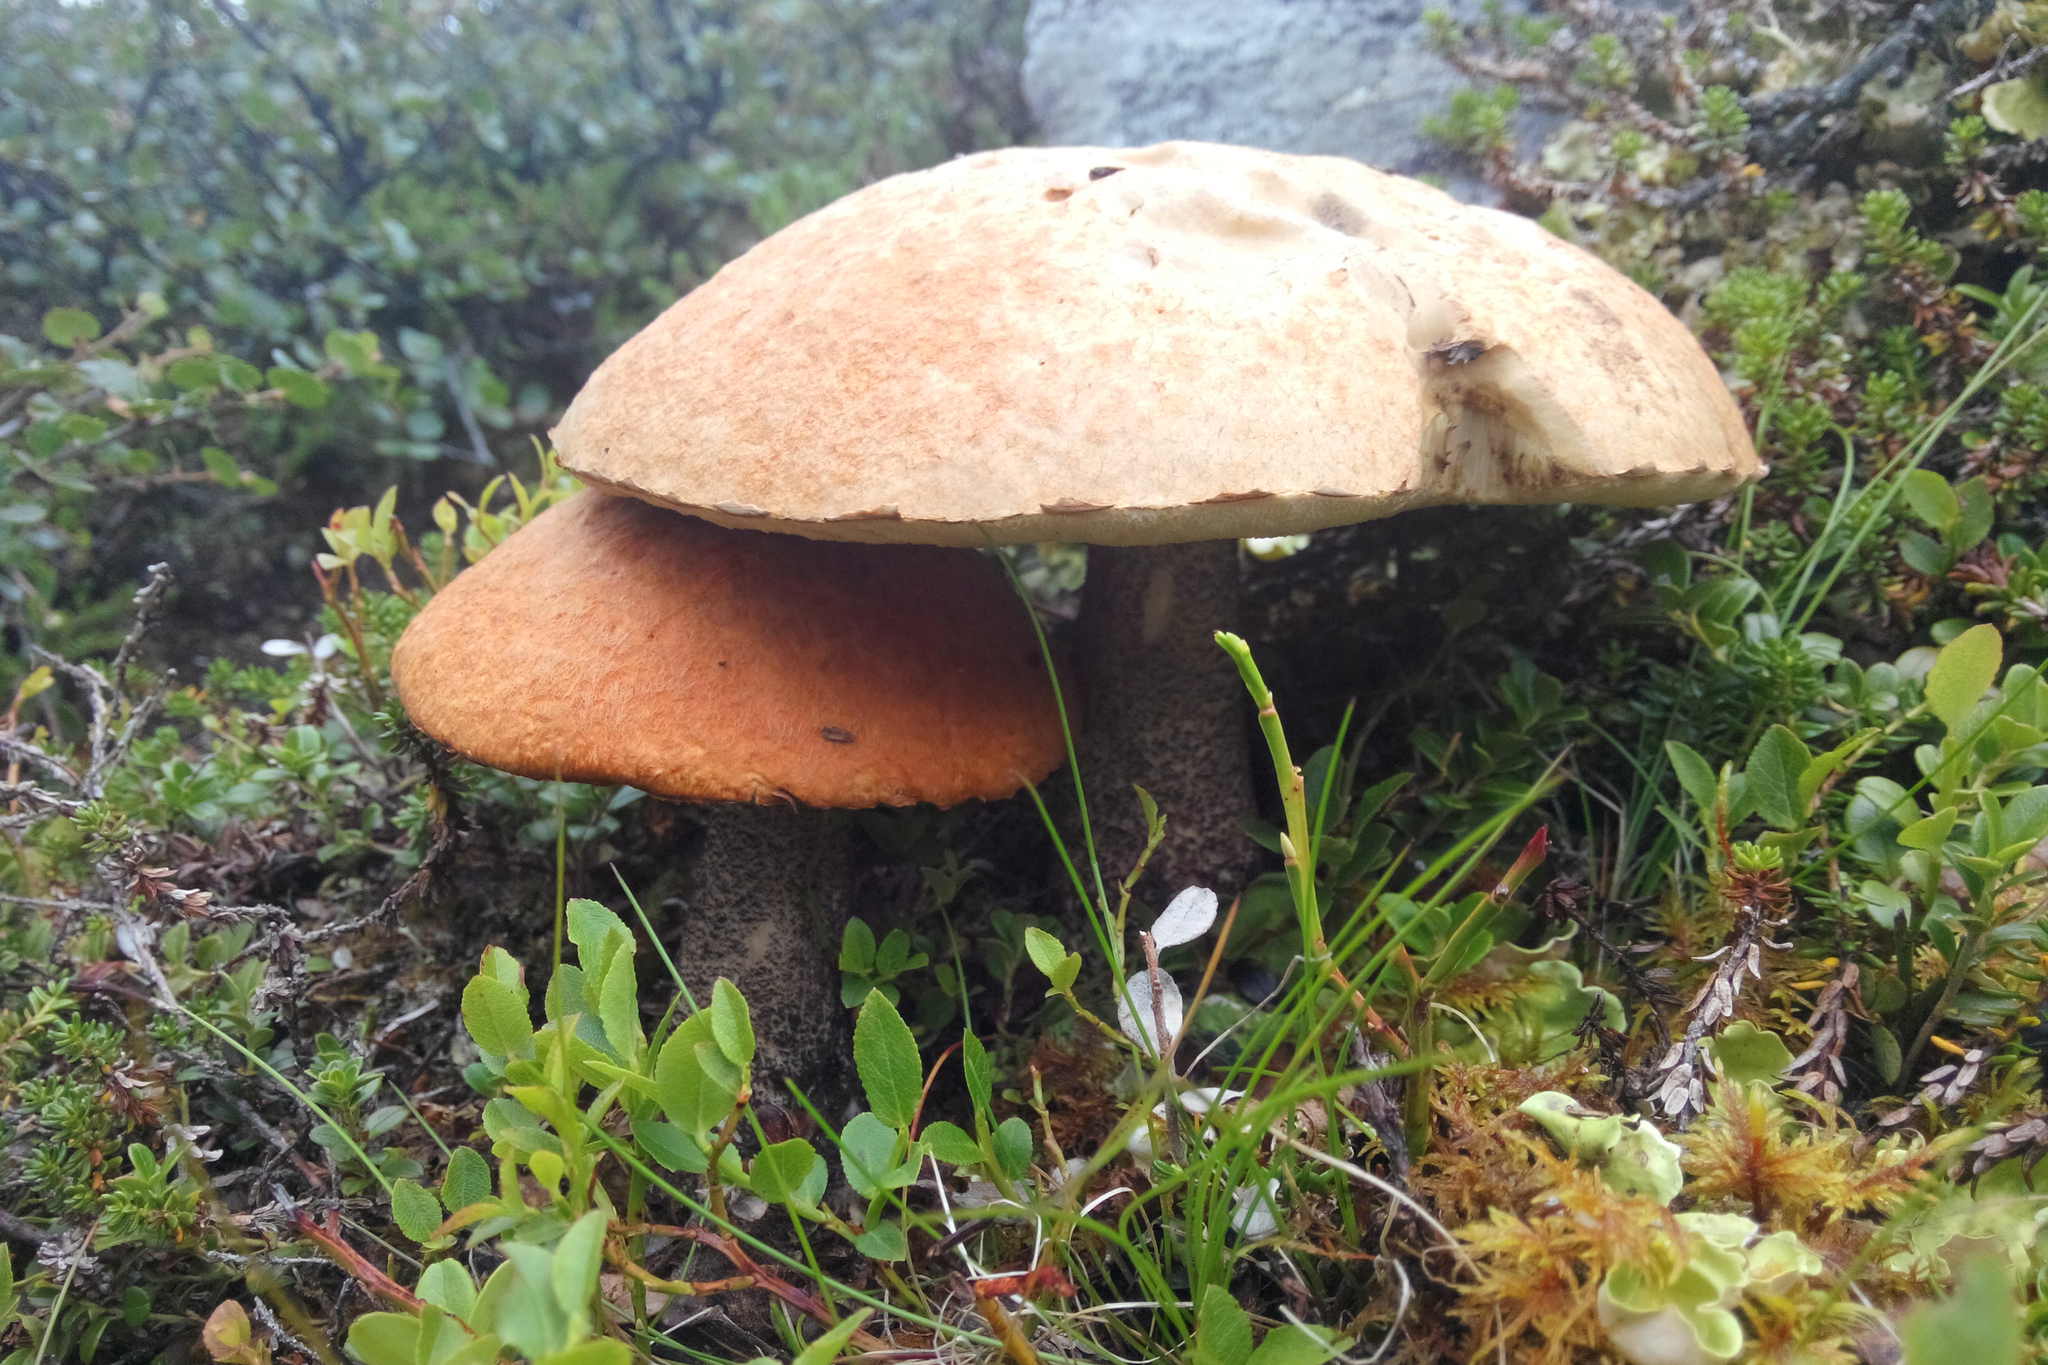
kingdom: Fungi
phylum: Basidiomycota
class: Agaricomycetes
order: Boletales
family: Boletaceae
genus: Leccinum
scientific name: Leccinum versipelle
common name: Orange birch bolete
